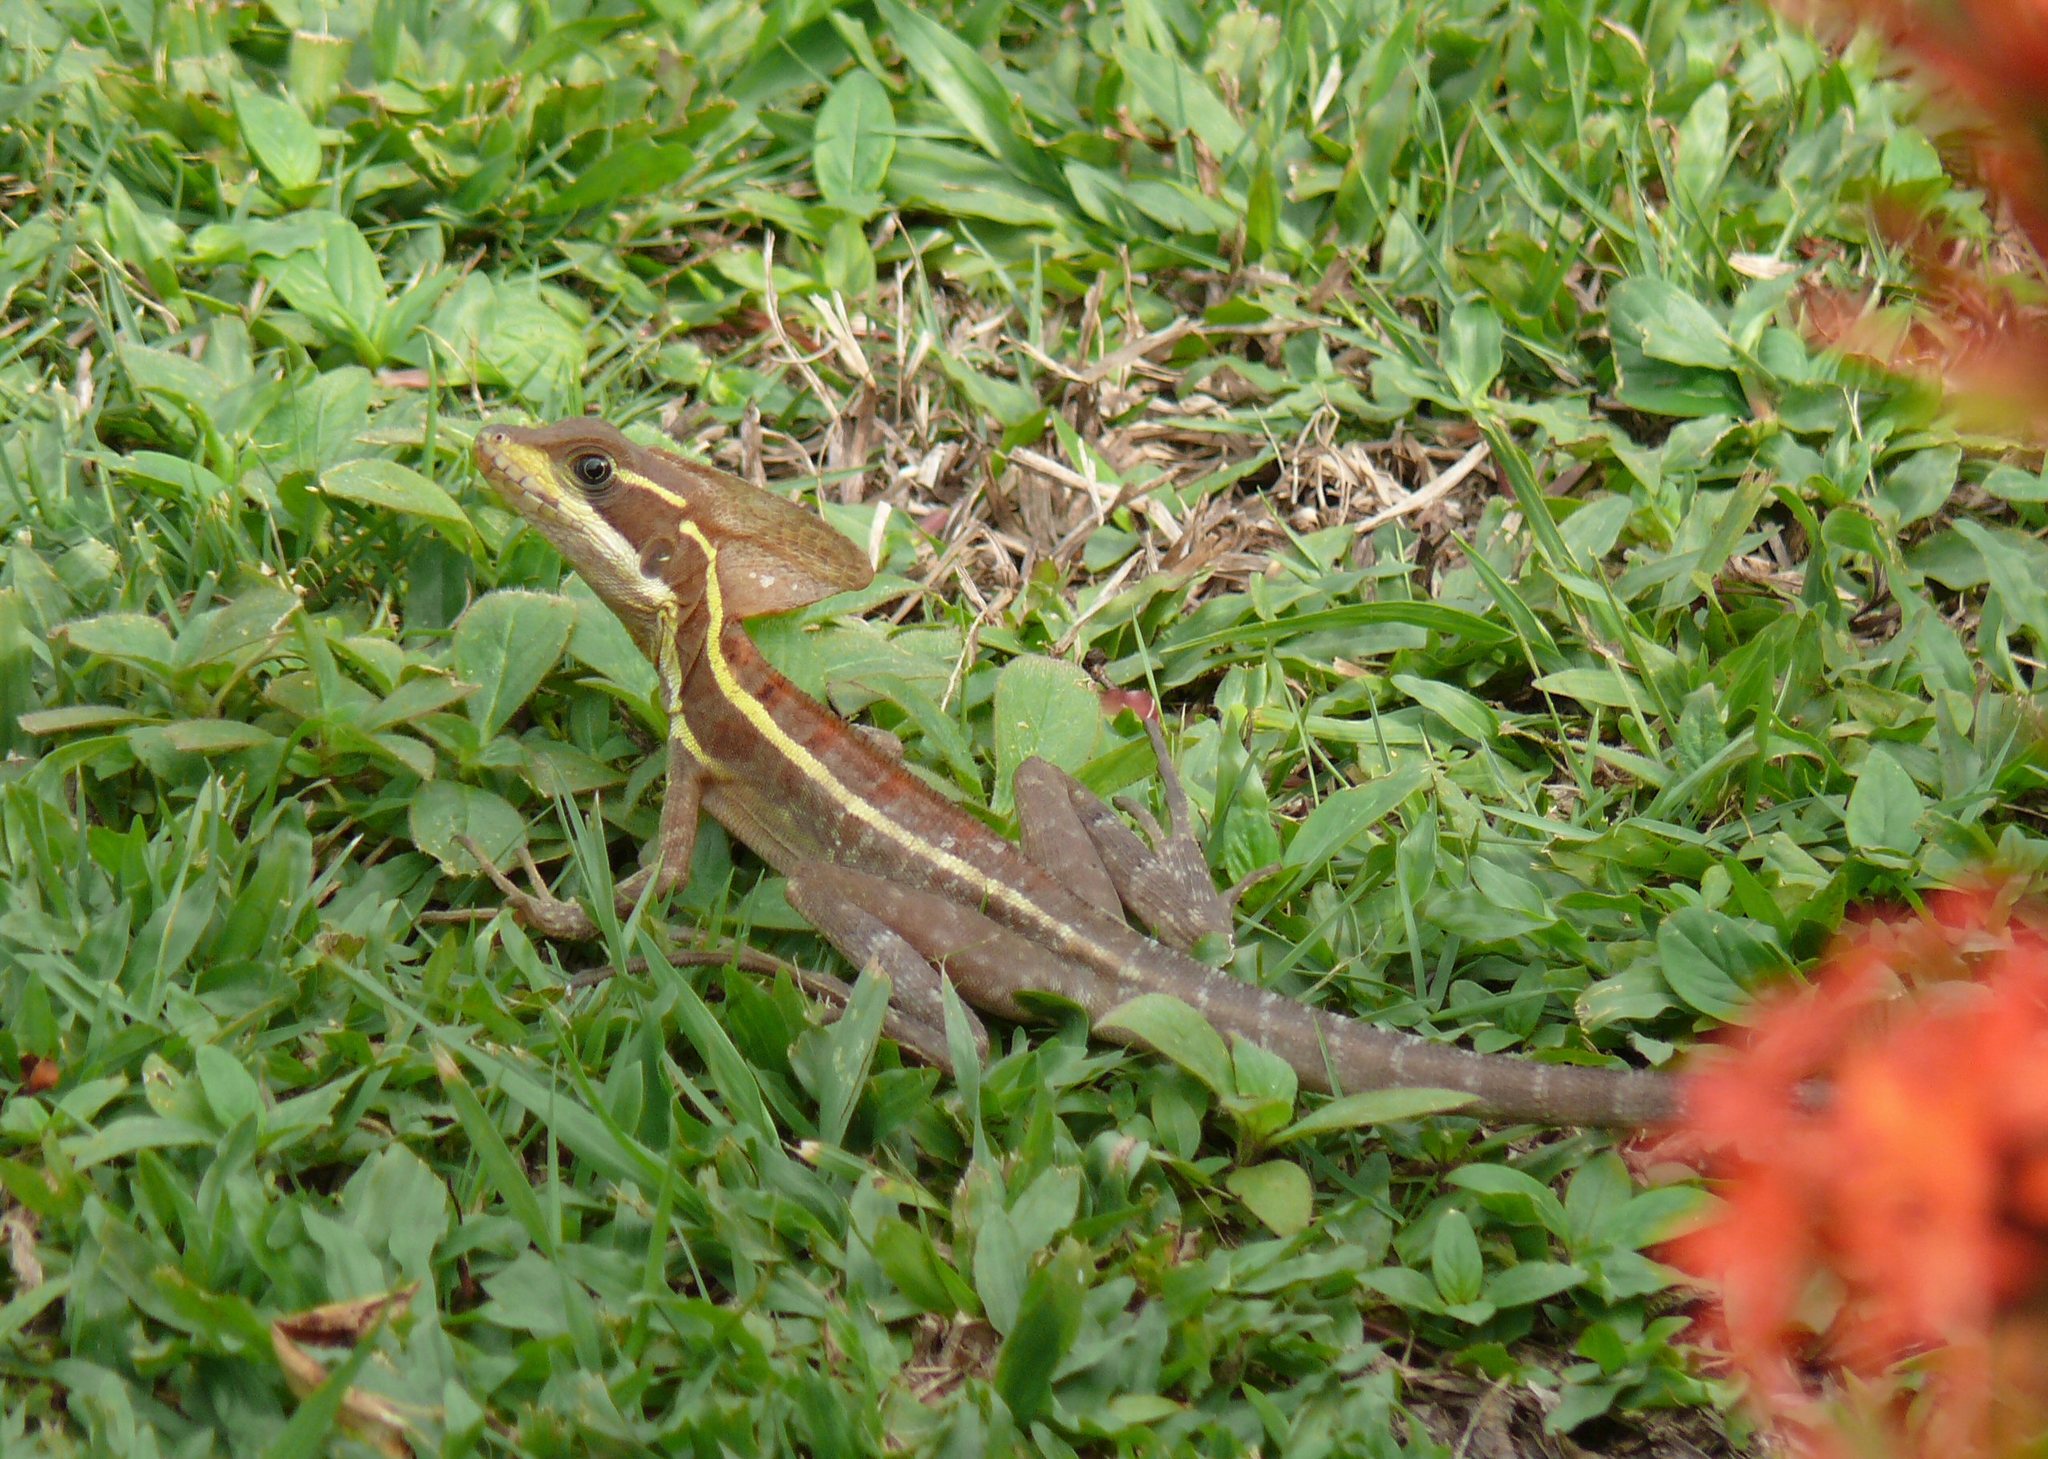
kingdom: Animalia
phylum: Chordata
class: Squamata
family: Corytophanidae
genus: Basiliscus
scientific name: Basiliscus basiliscus
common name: Common basilisk
